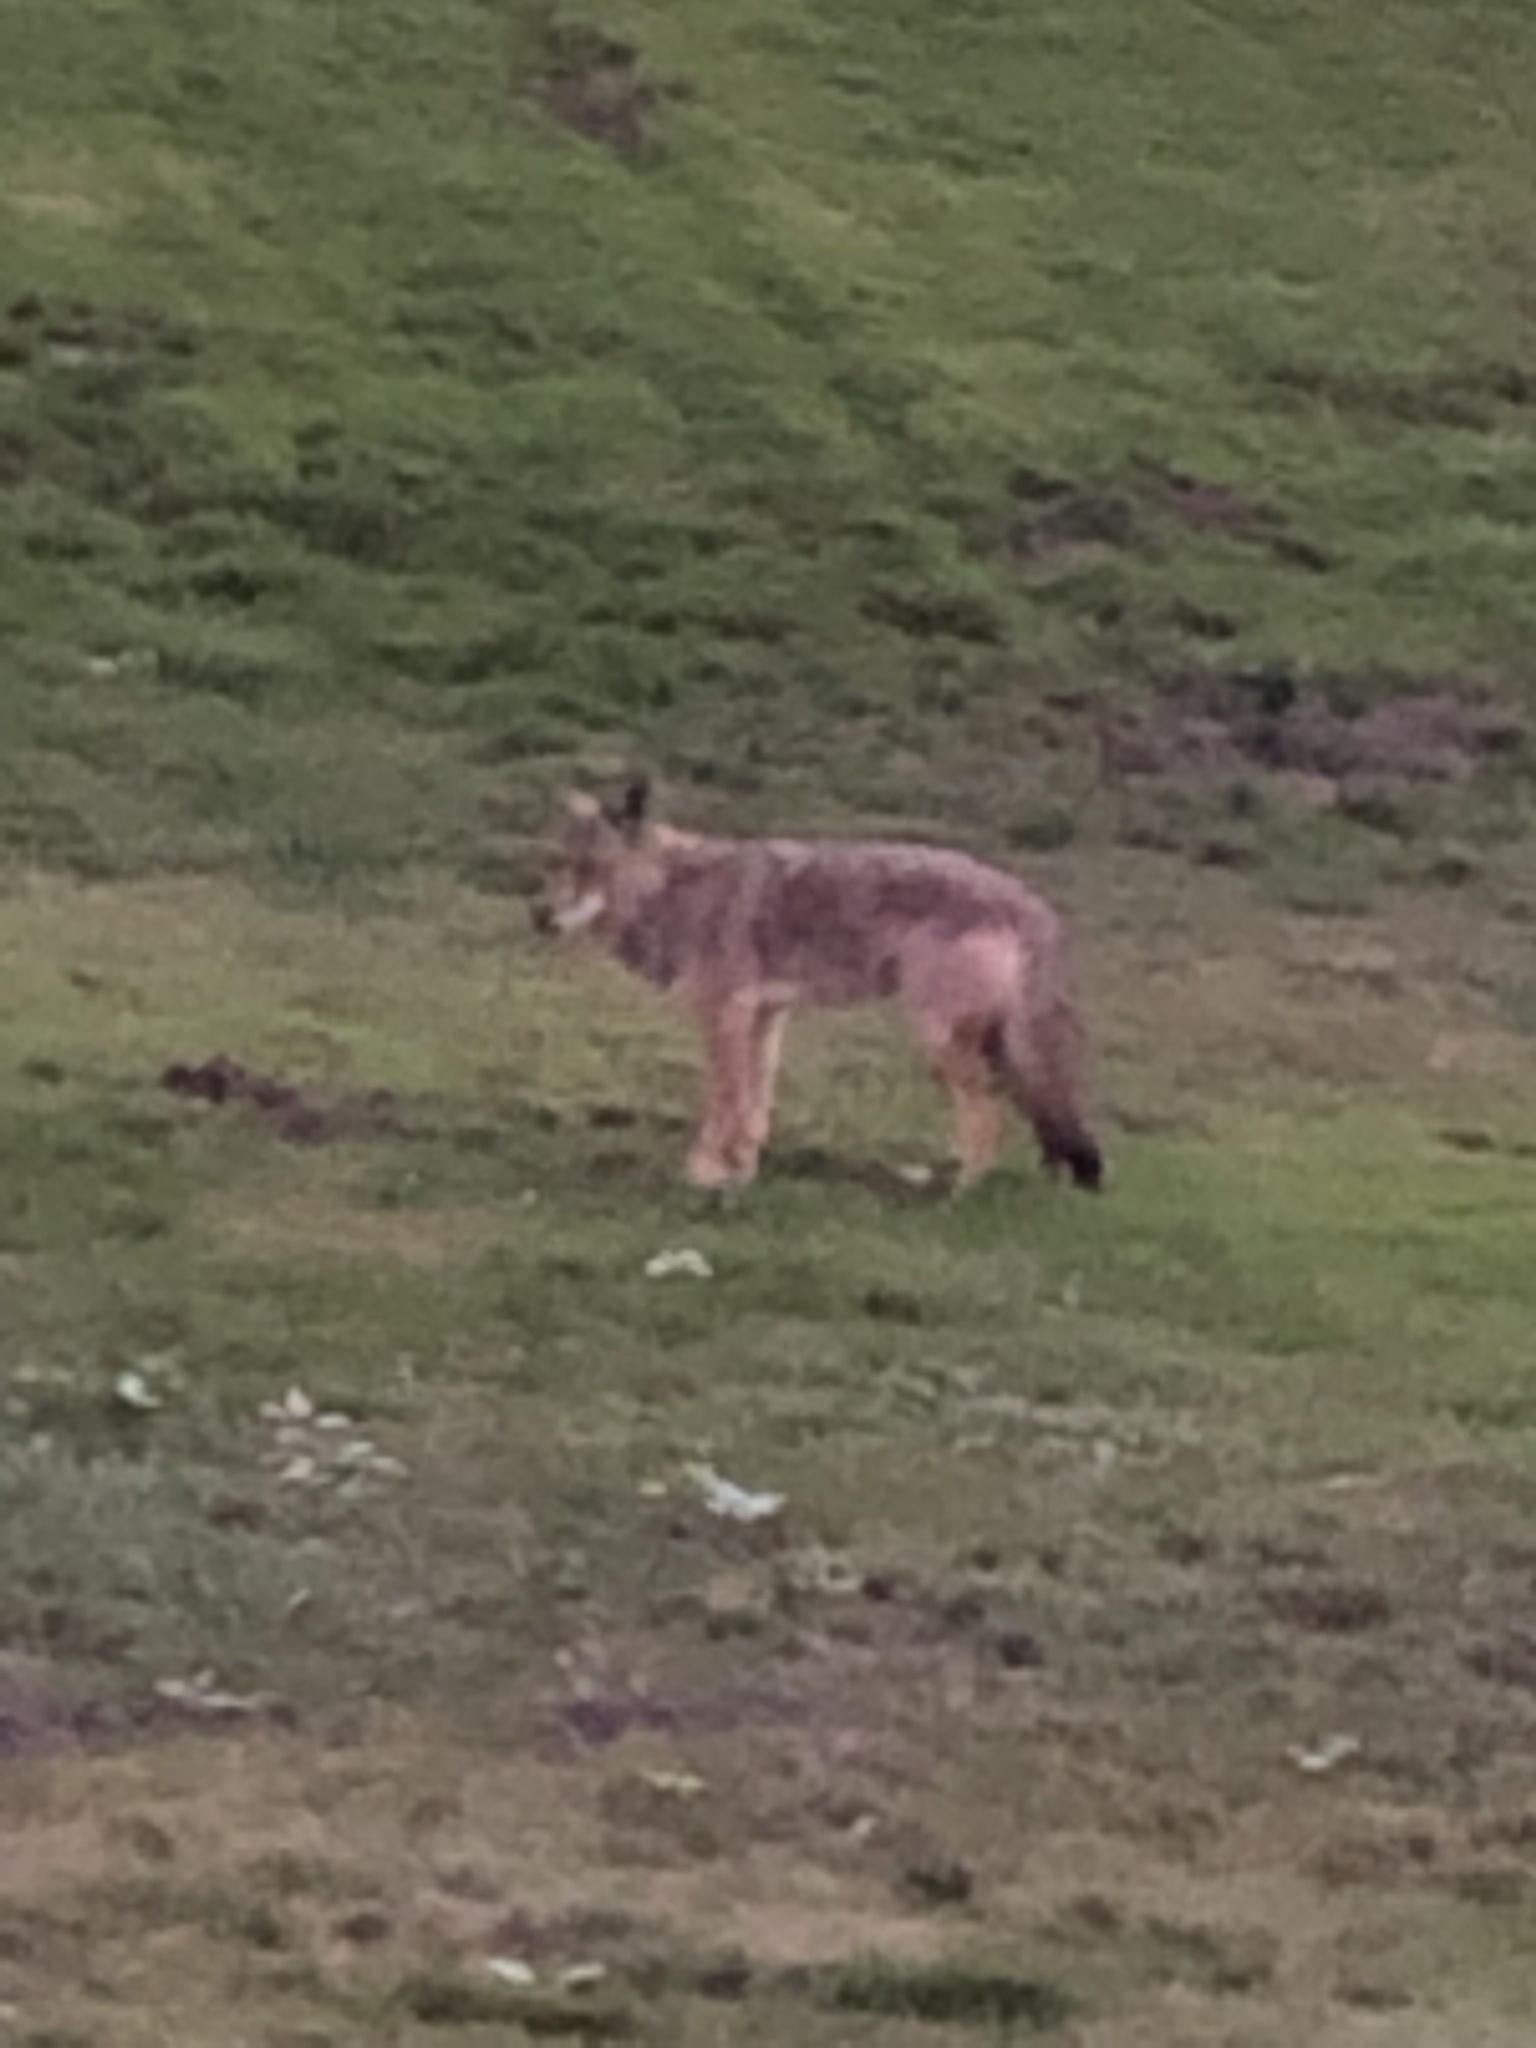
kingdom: Animalia
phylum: Chordata
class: Mammalia
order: Carnivora
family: Canidae
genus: Canis
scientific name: Canis latrans
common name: Coyote
